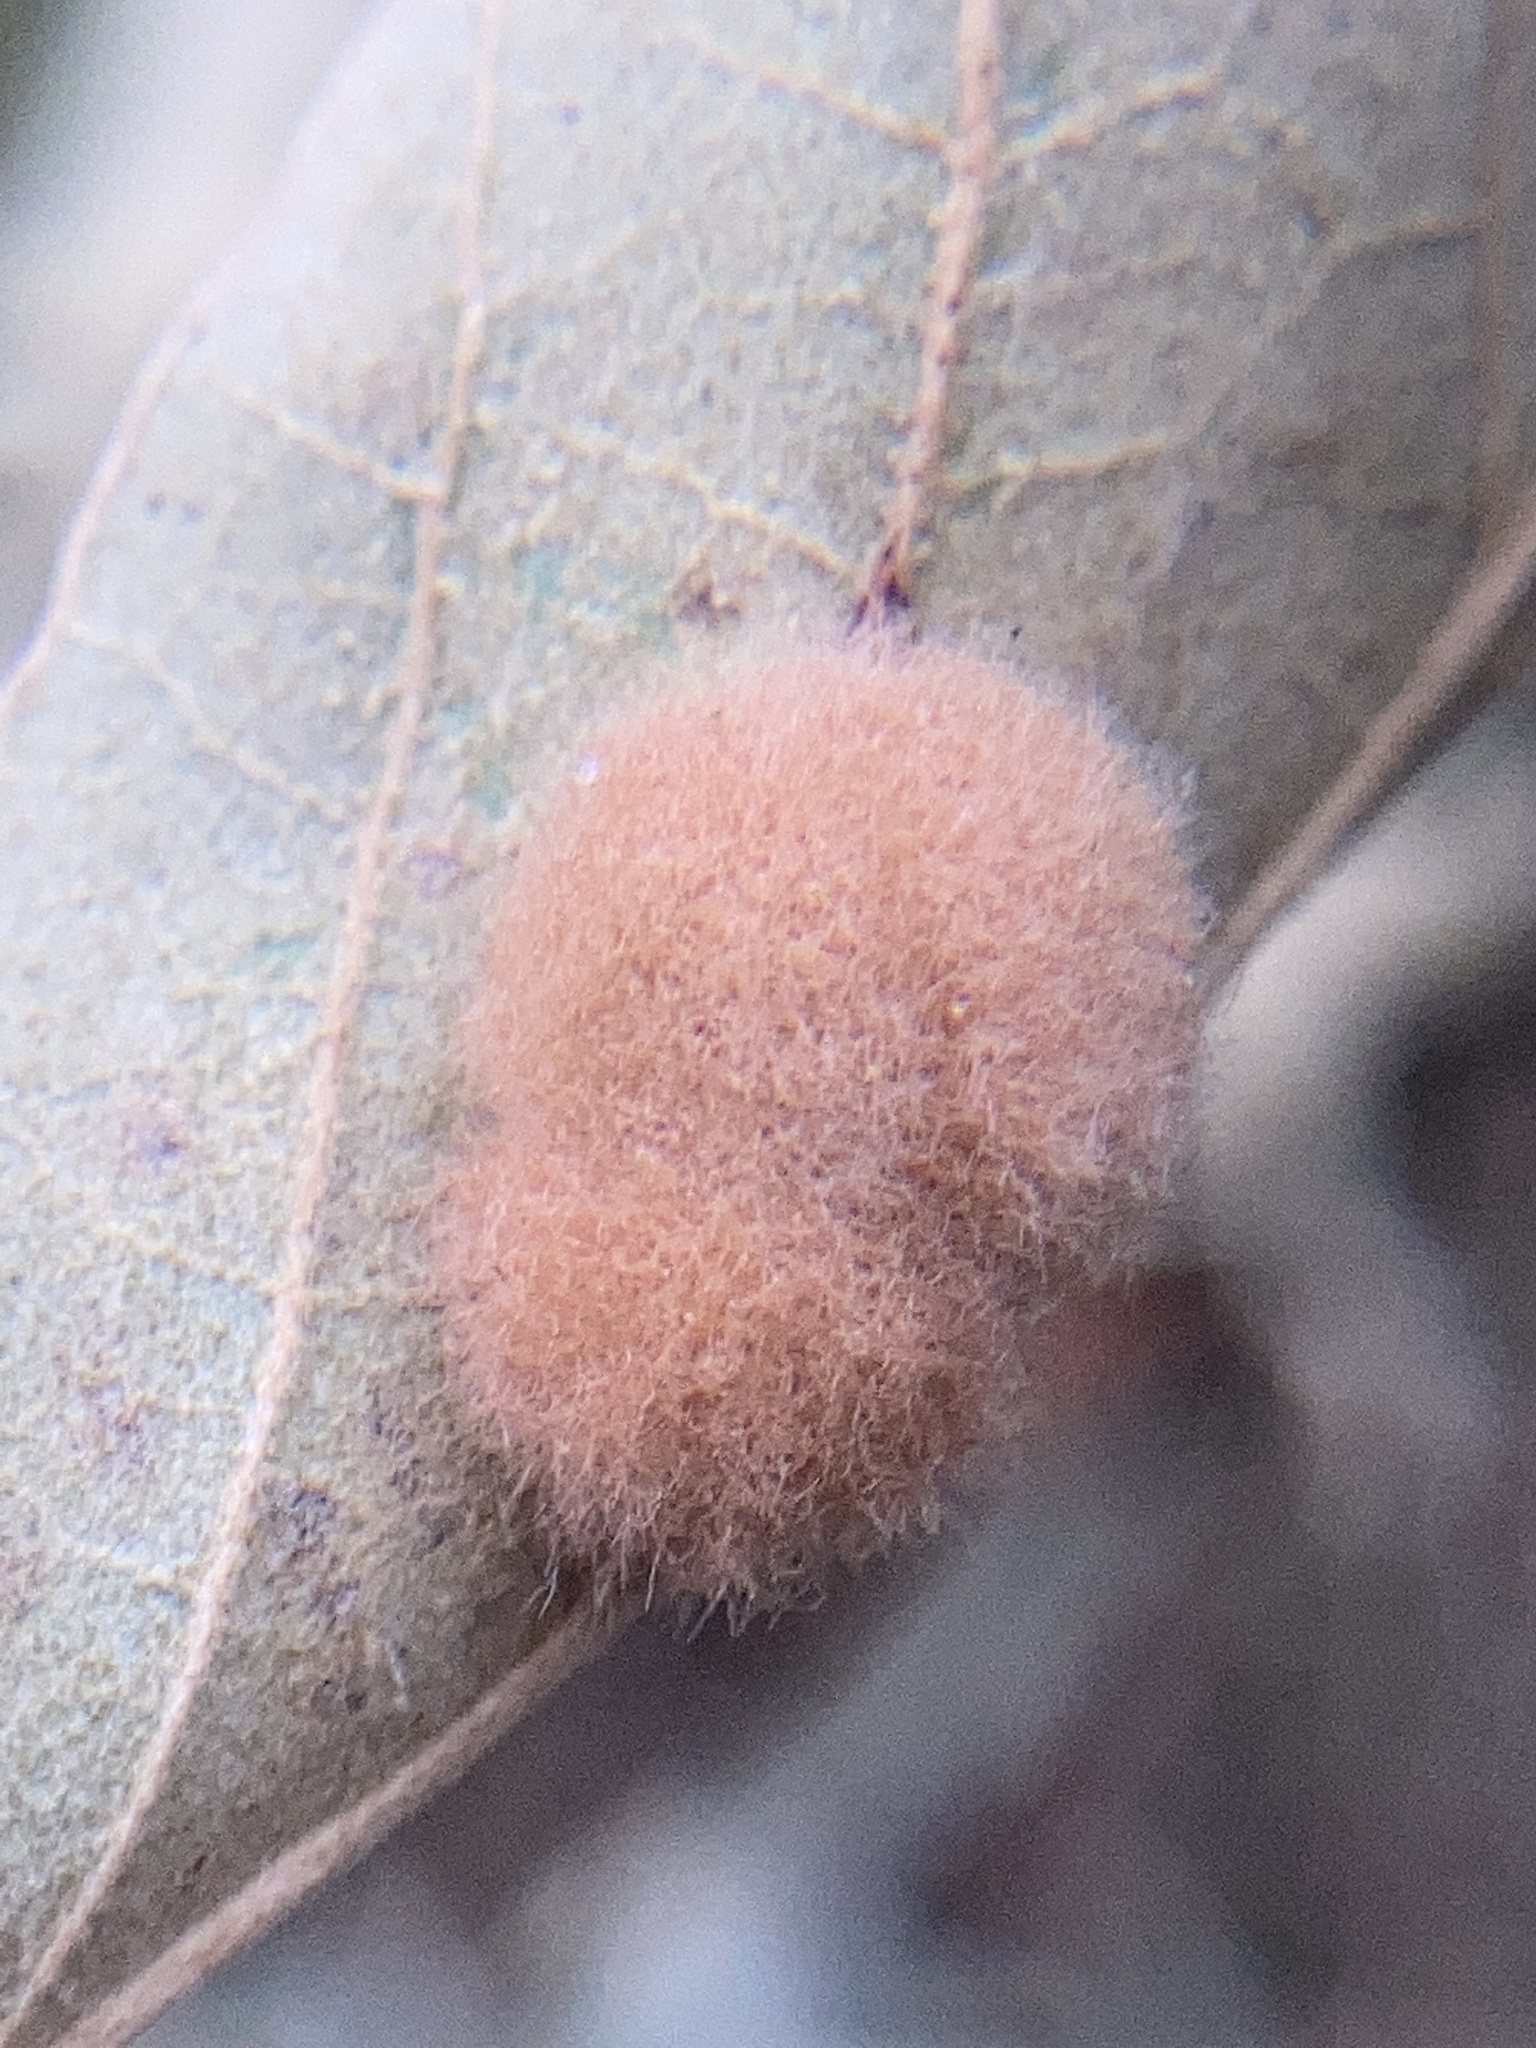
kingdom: Animalia
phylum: Arthropoda
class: Insecta
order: Hymenoptera
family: Cynipidae
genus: Callirhytis
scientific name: Callirhytis
